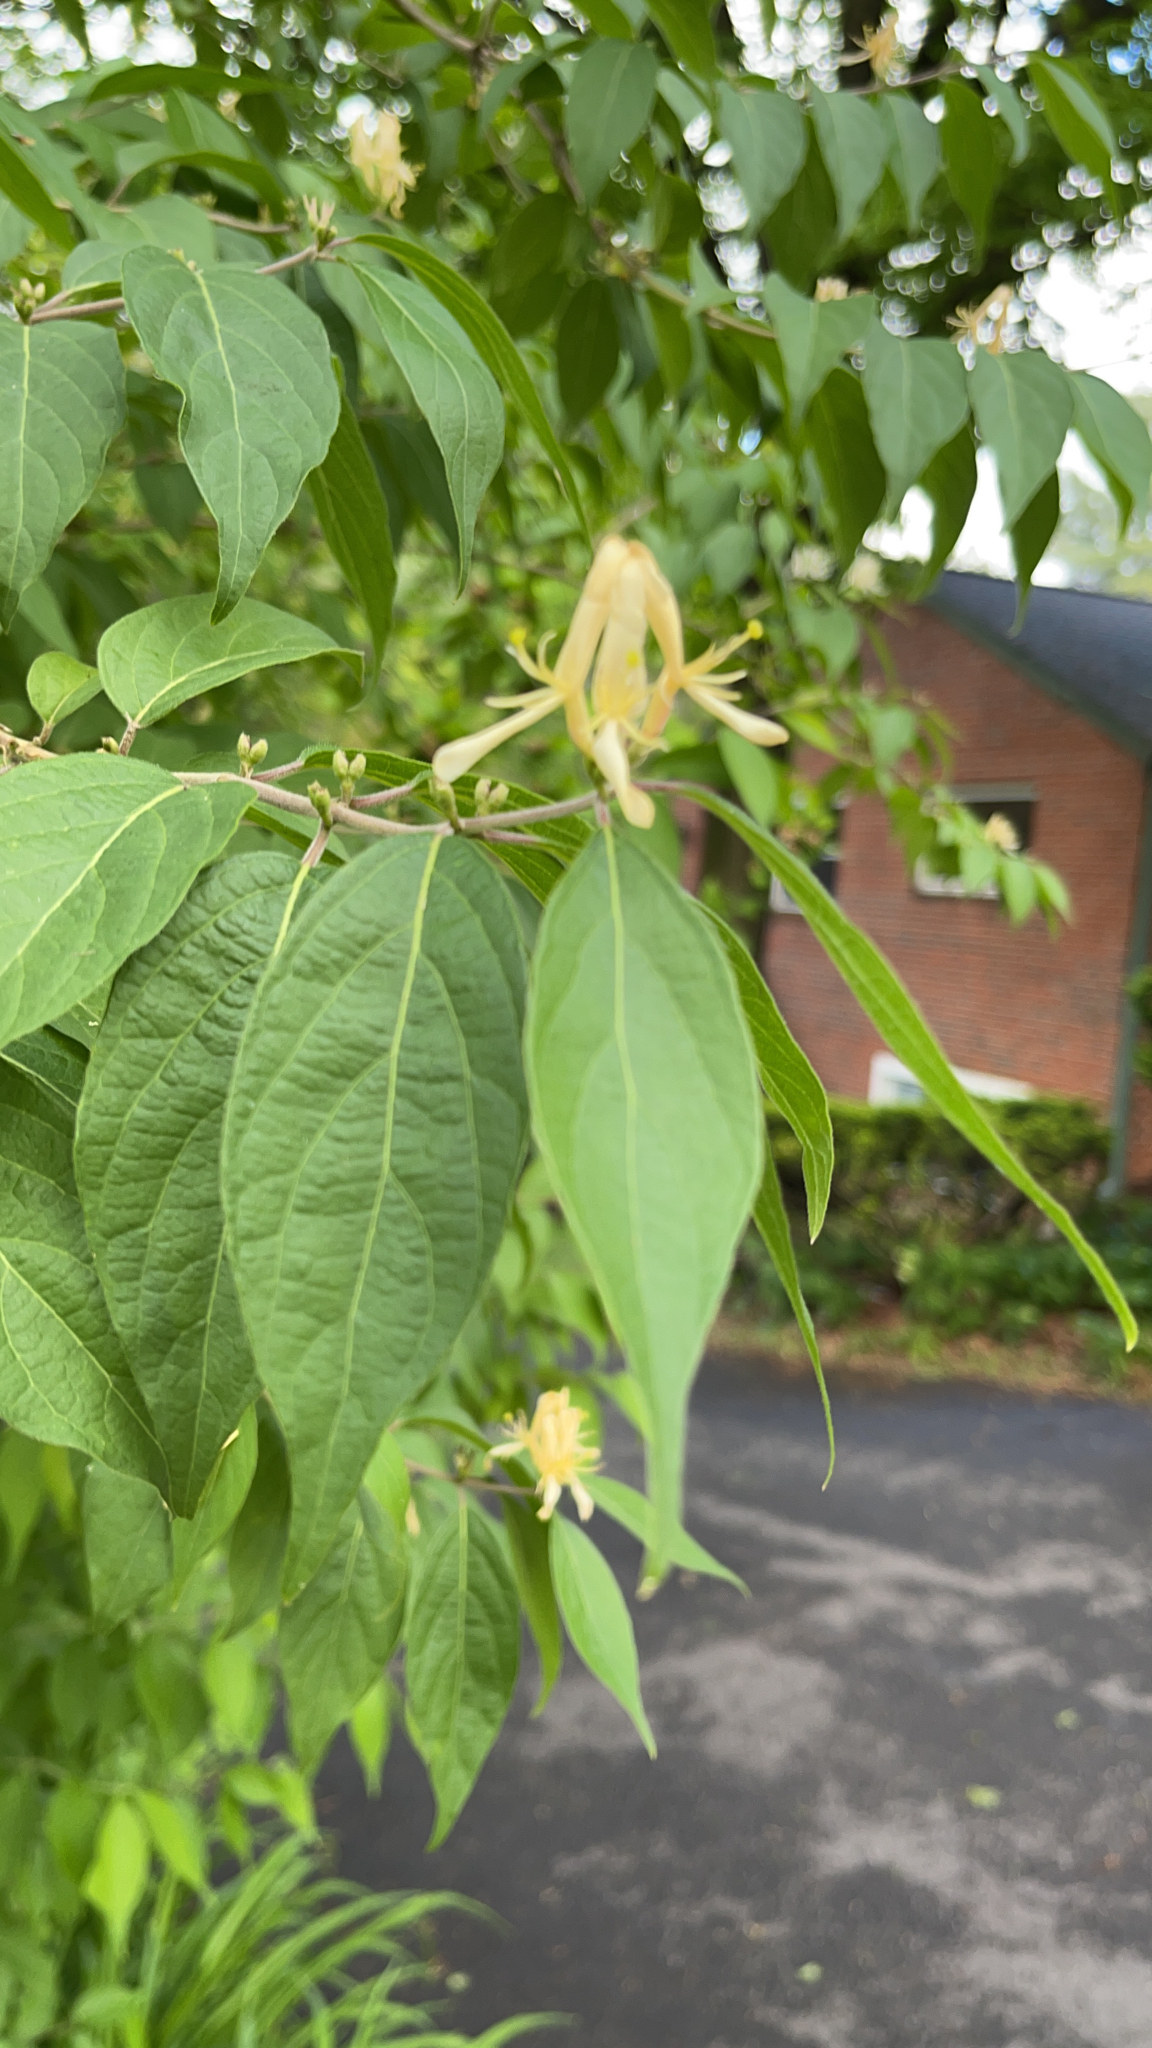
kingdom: Plantae
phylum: Tracheophyta
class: Magnoliopsida
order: Dipsacales
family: Caprifoliaceae
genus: Lonicera
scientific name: Lonicera maackii
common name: Amur honeysuckle
